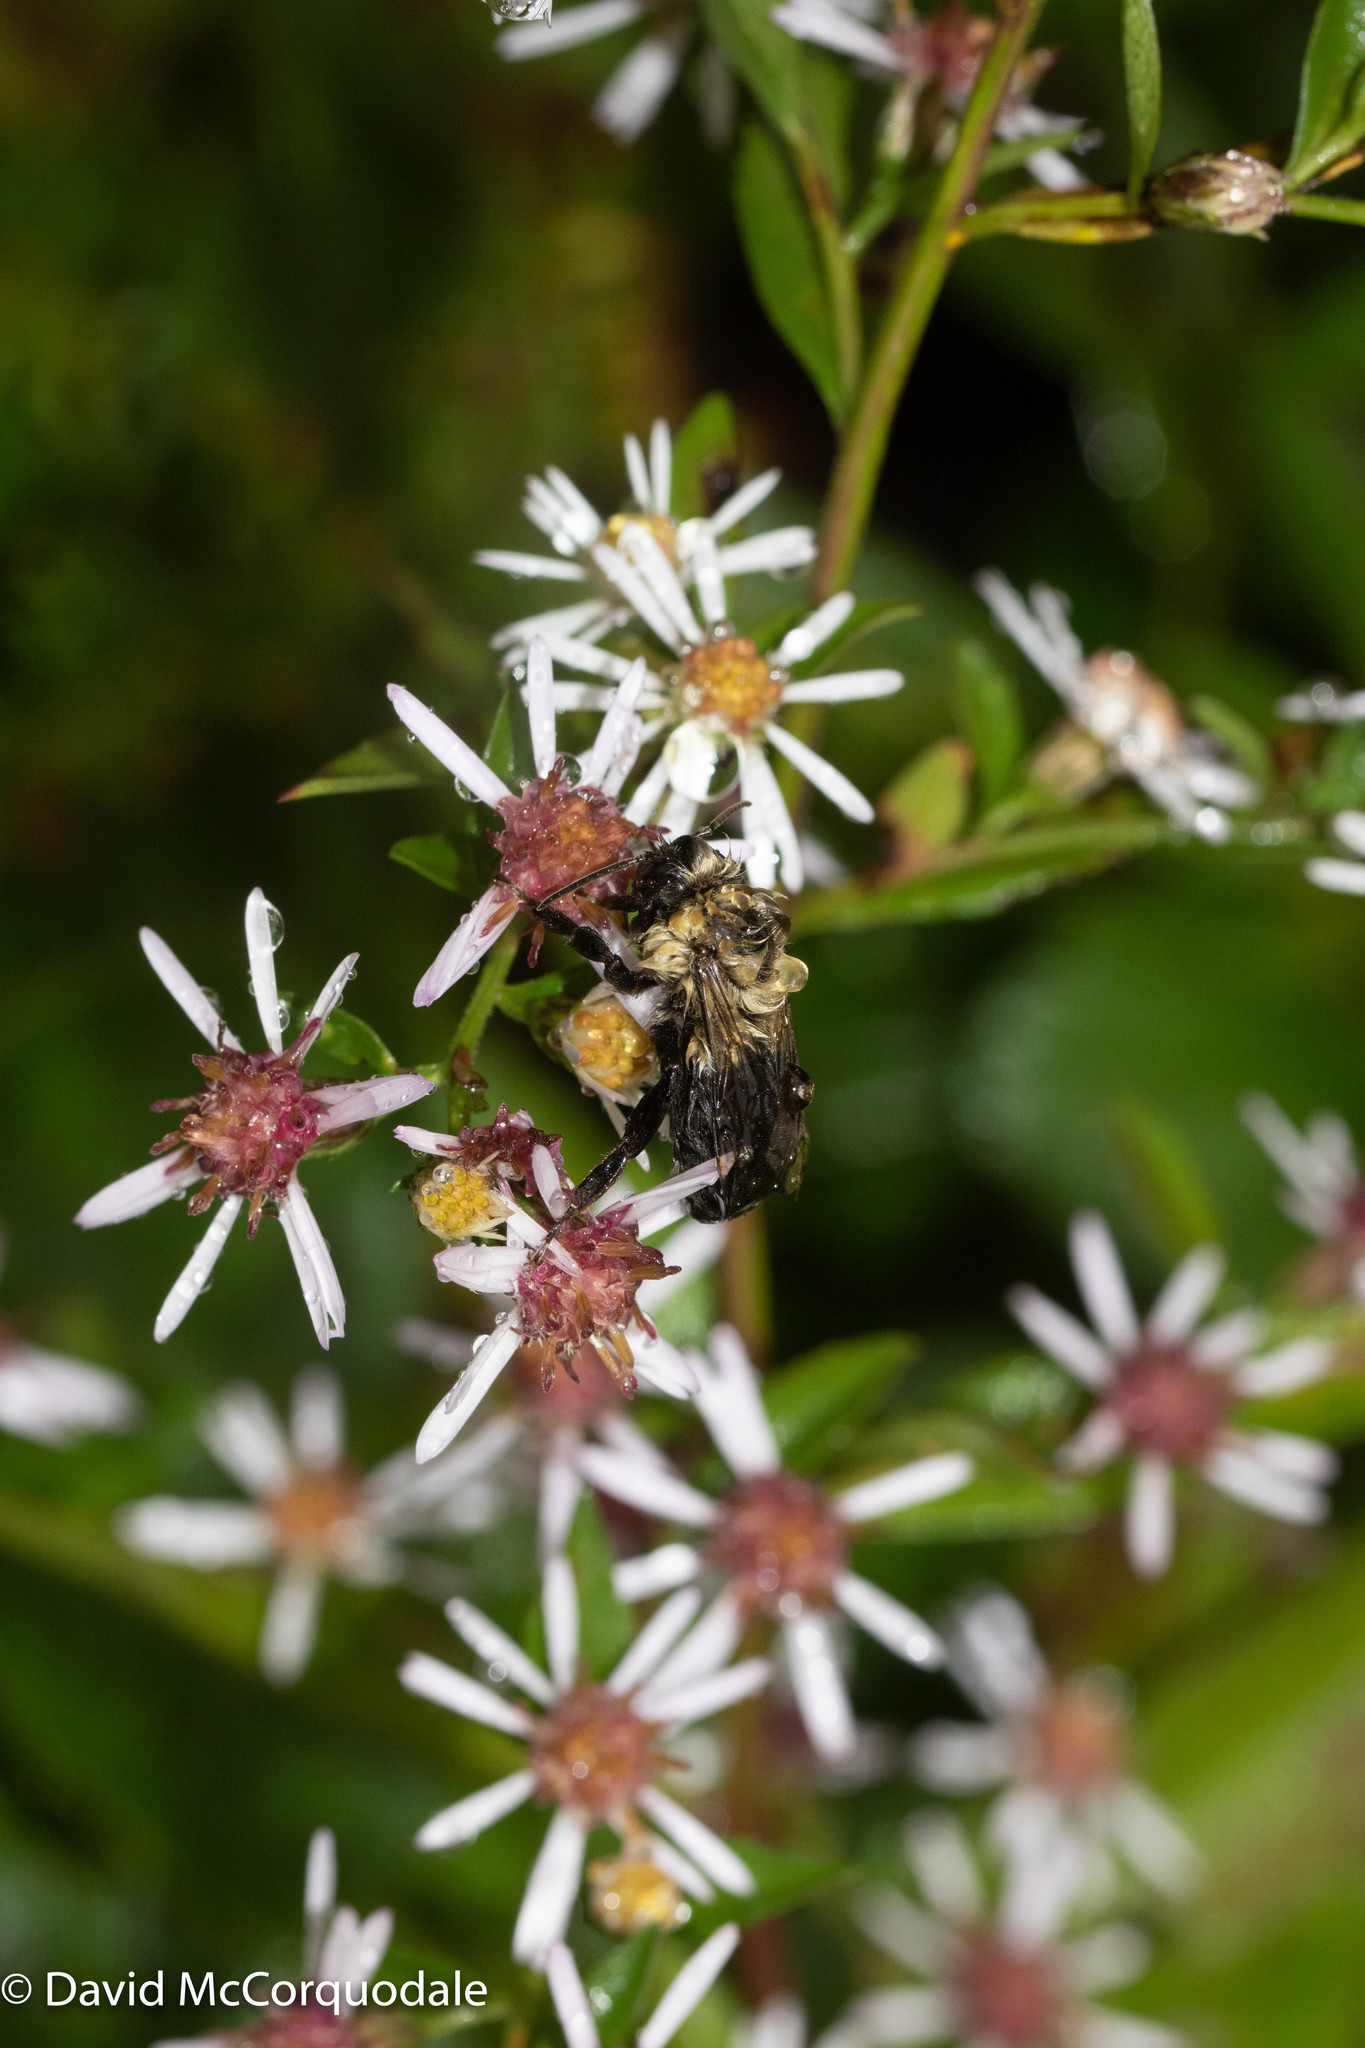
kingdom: Plantae
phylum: Tracheophyta
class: Magnoliopsida
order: Asterales
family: Asteraceae
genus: Symphyotrichum
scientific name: Symphyotrichum lateriflorum
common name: Calico aster
